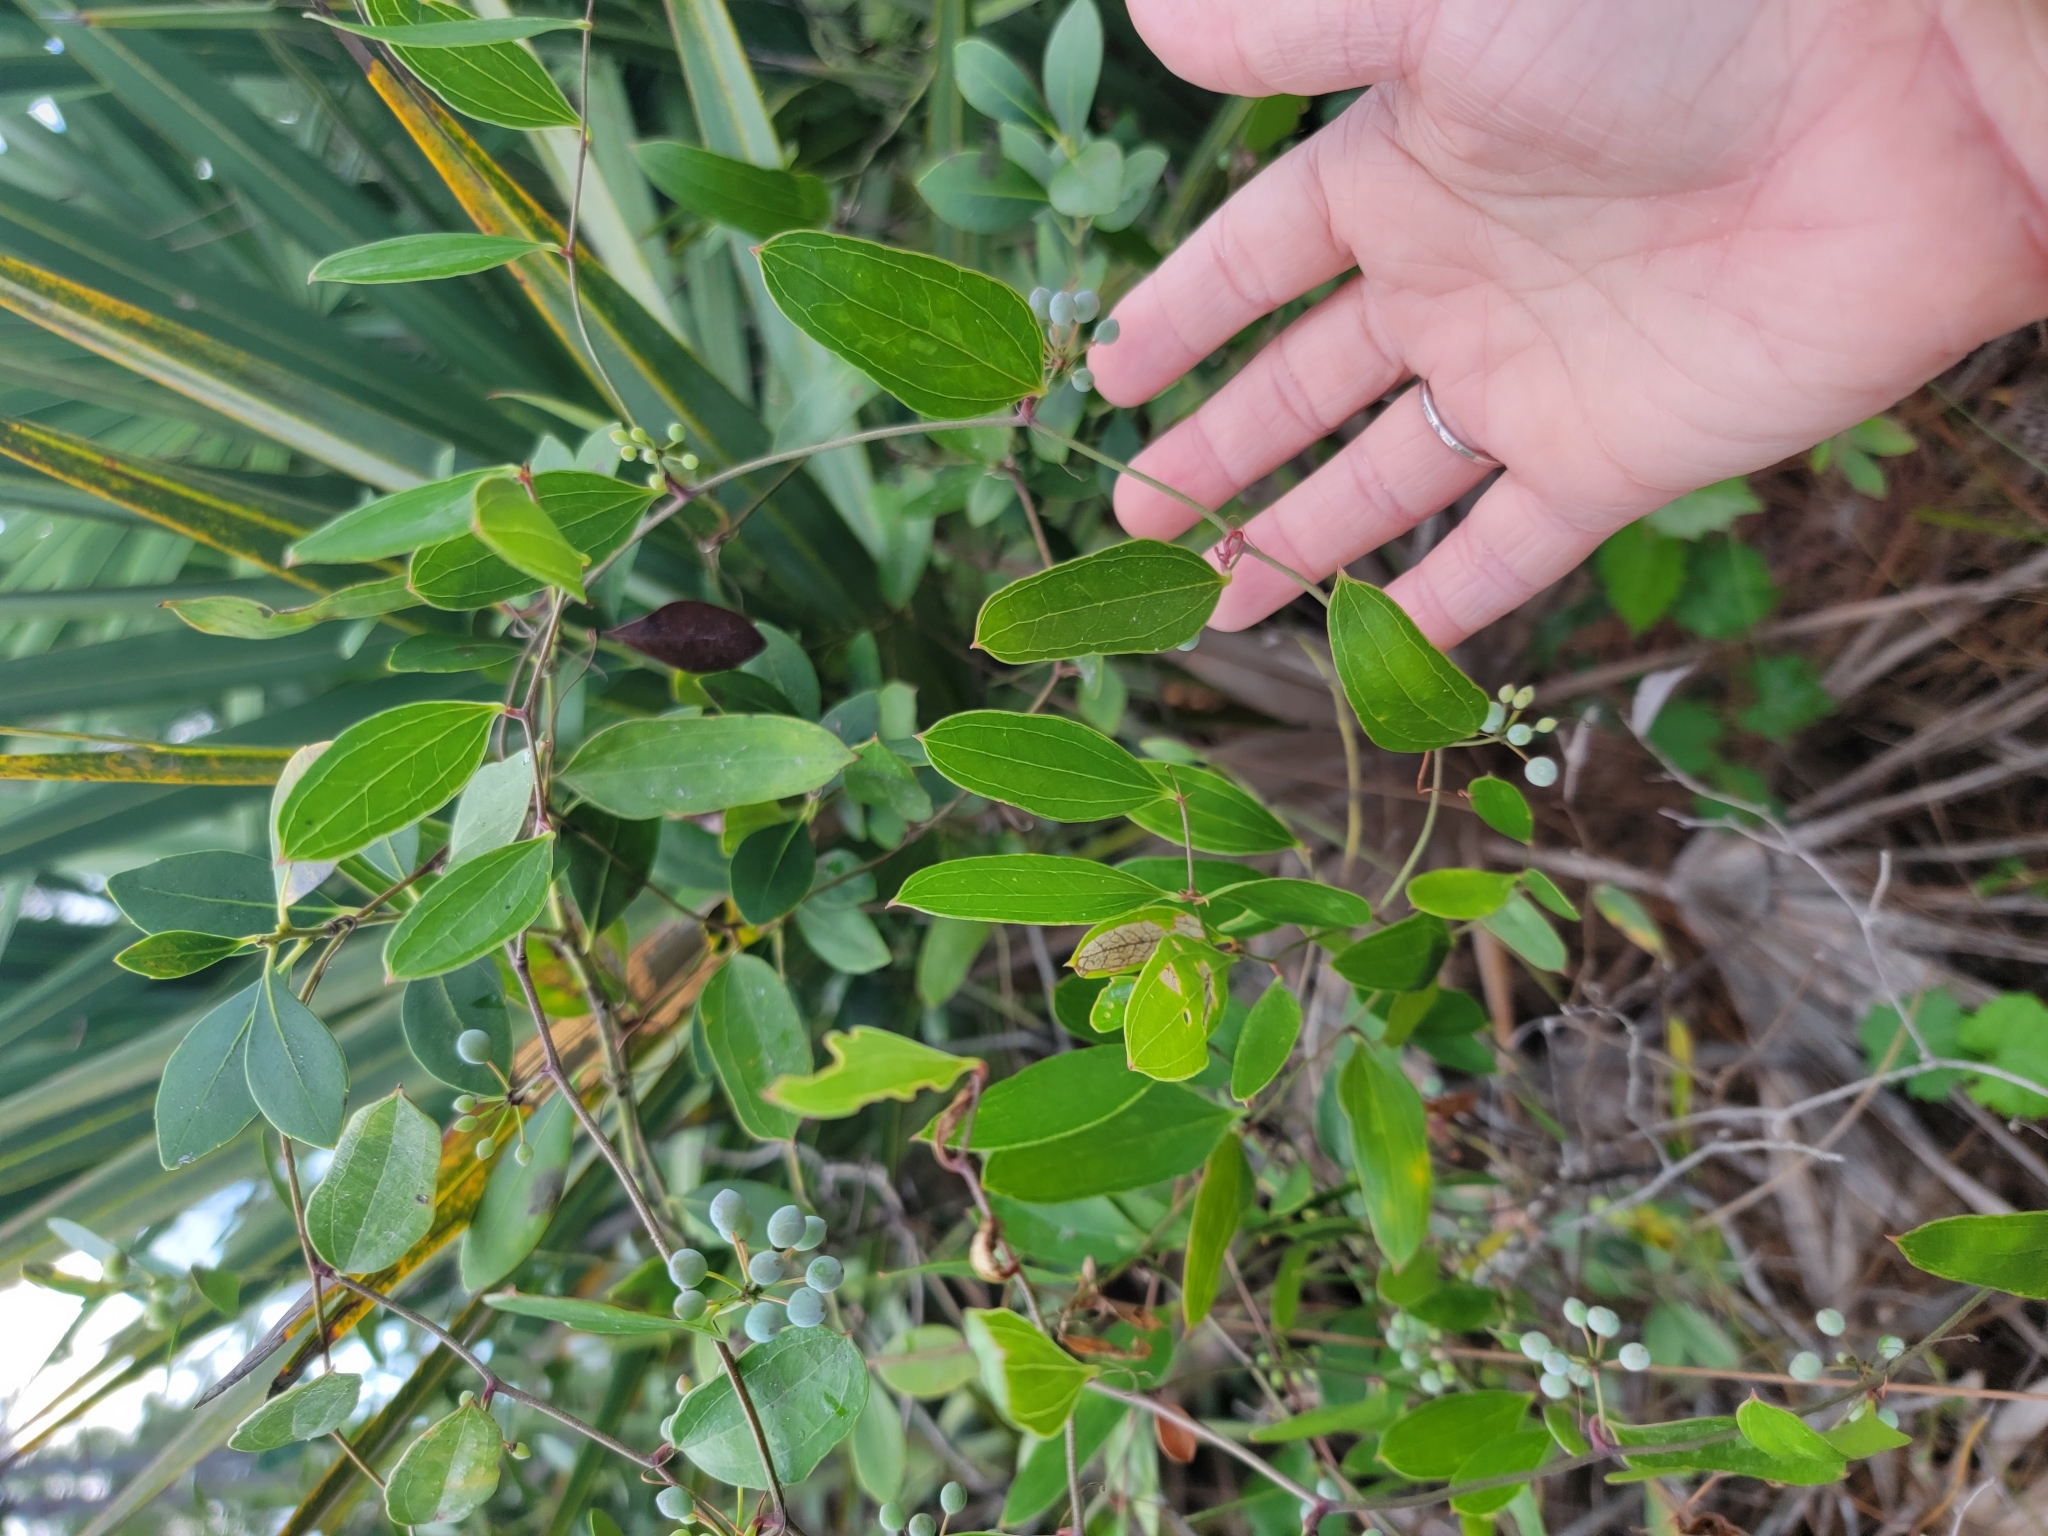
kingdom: Plantae
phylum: Tracheophyta
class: Liliopsida
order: Liliales
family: Smilacaceae
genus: Smilax
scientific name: Smilax auriculata
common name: Wild bamboo
